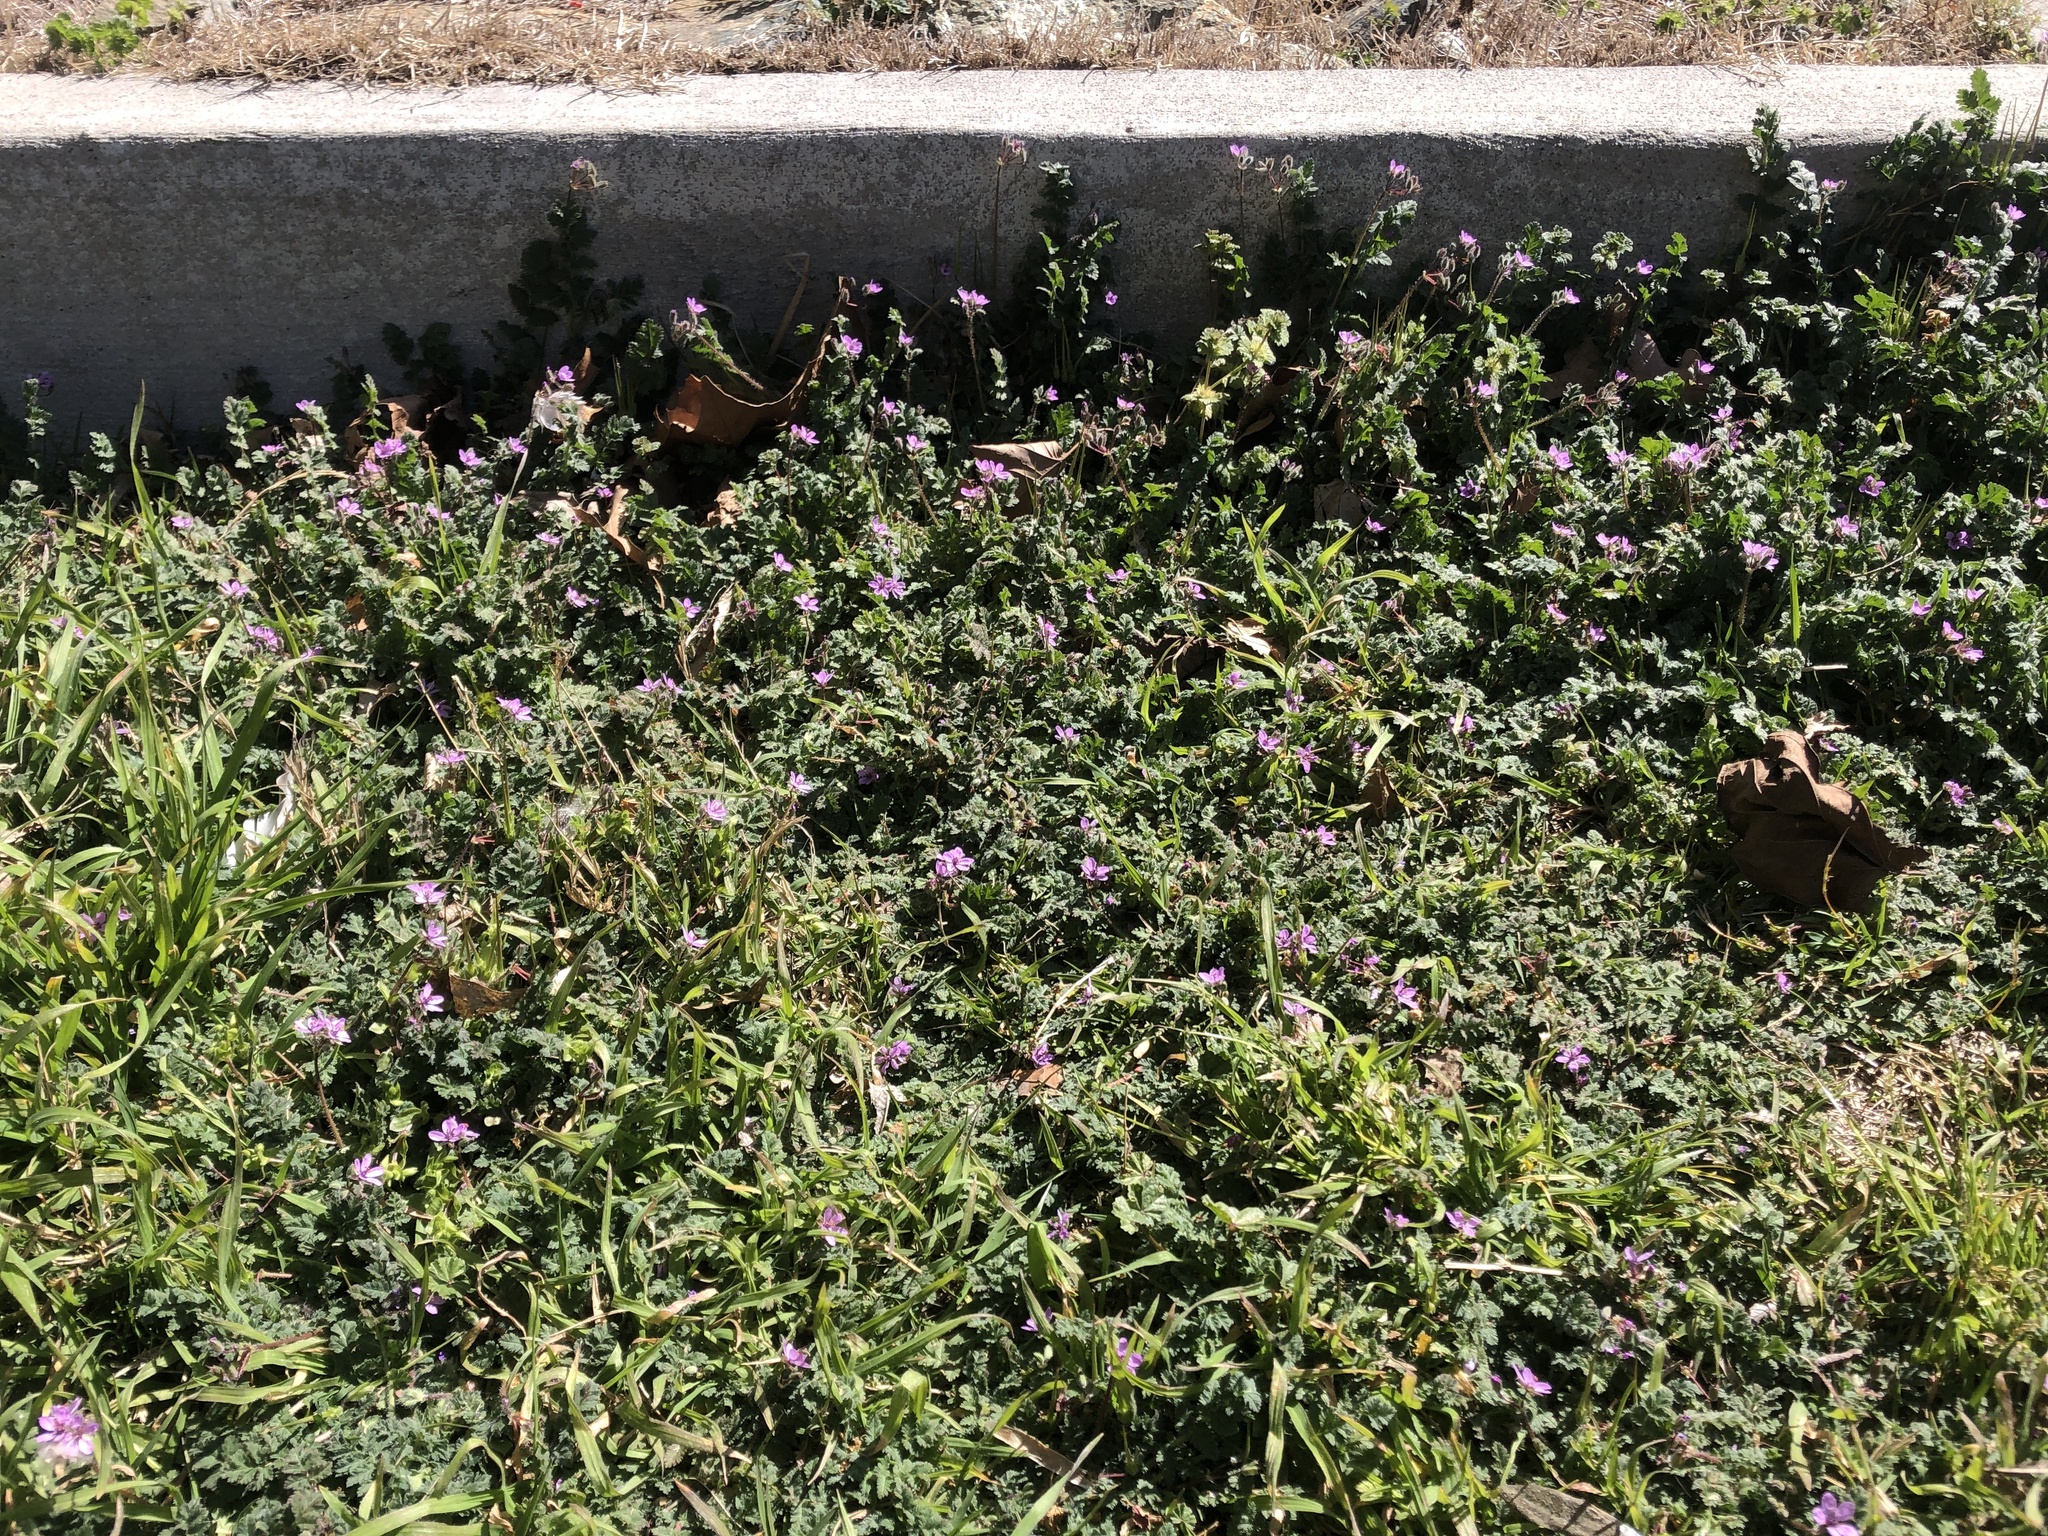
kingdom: Plantae
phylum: Tracheophyta
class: Magnoliopsida
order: Lamiales
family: Lamiaceae
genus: Lamium
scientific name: Lamium amplexicaule
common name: Henbit dead-nettle
